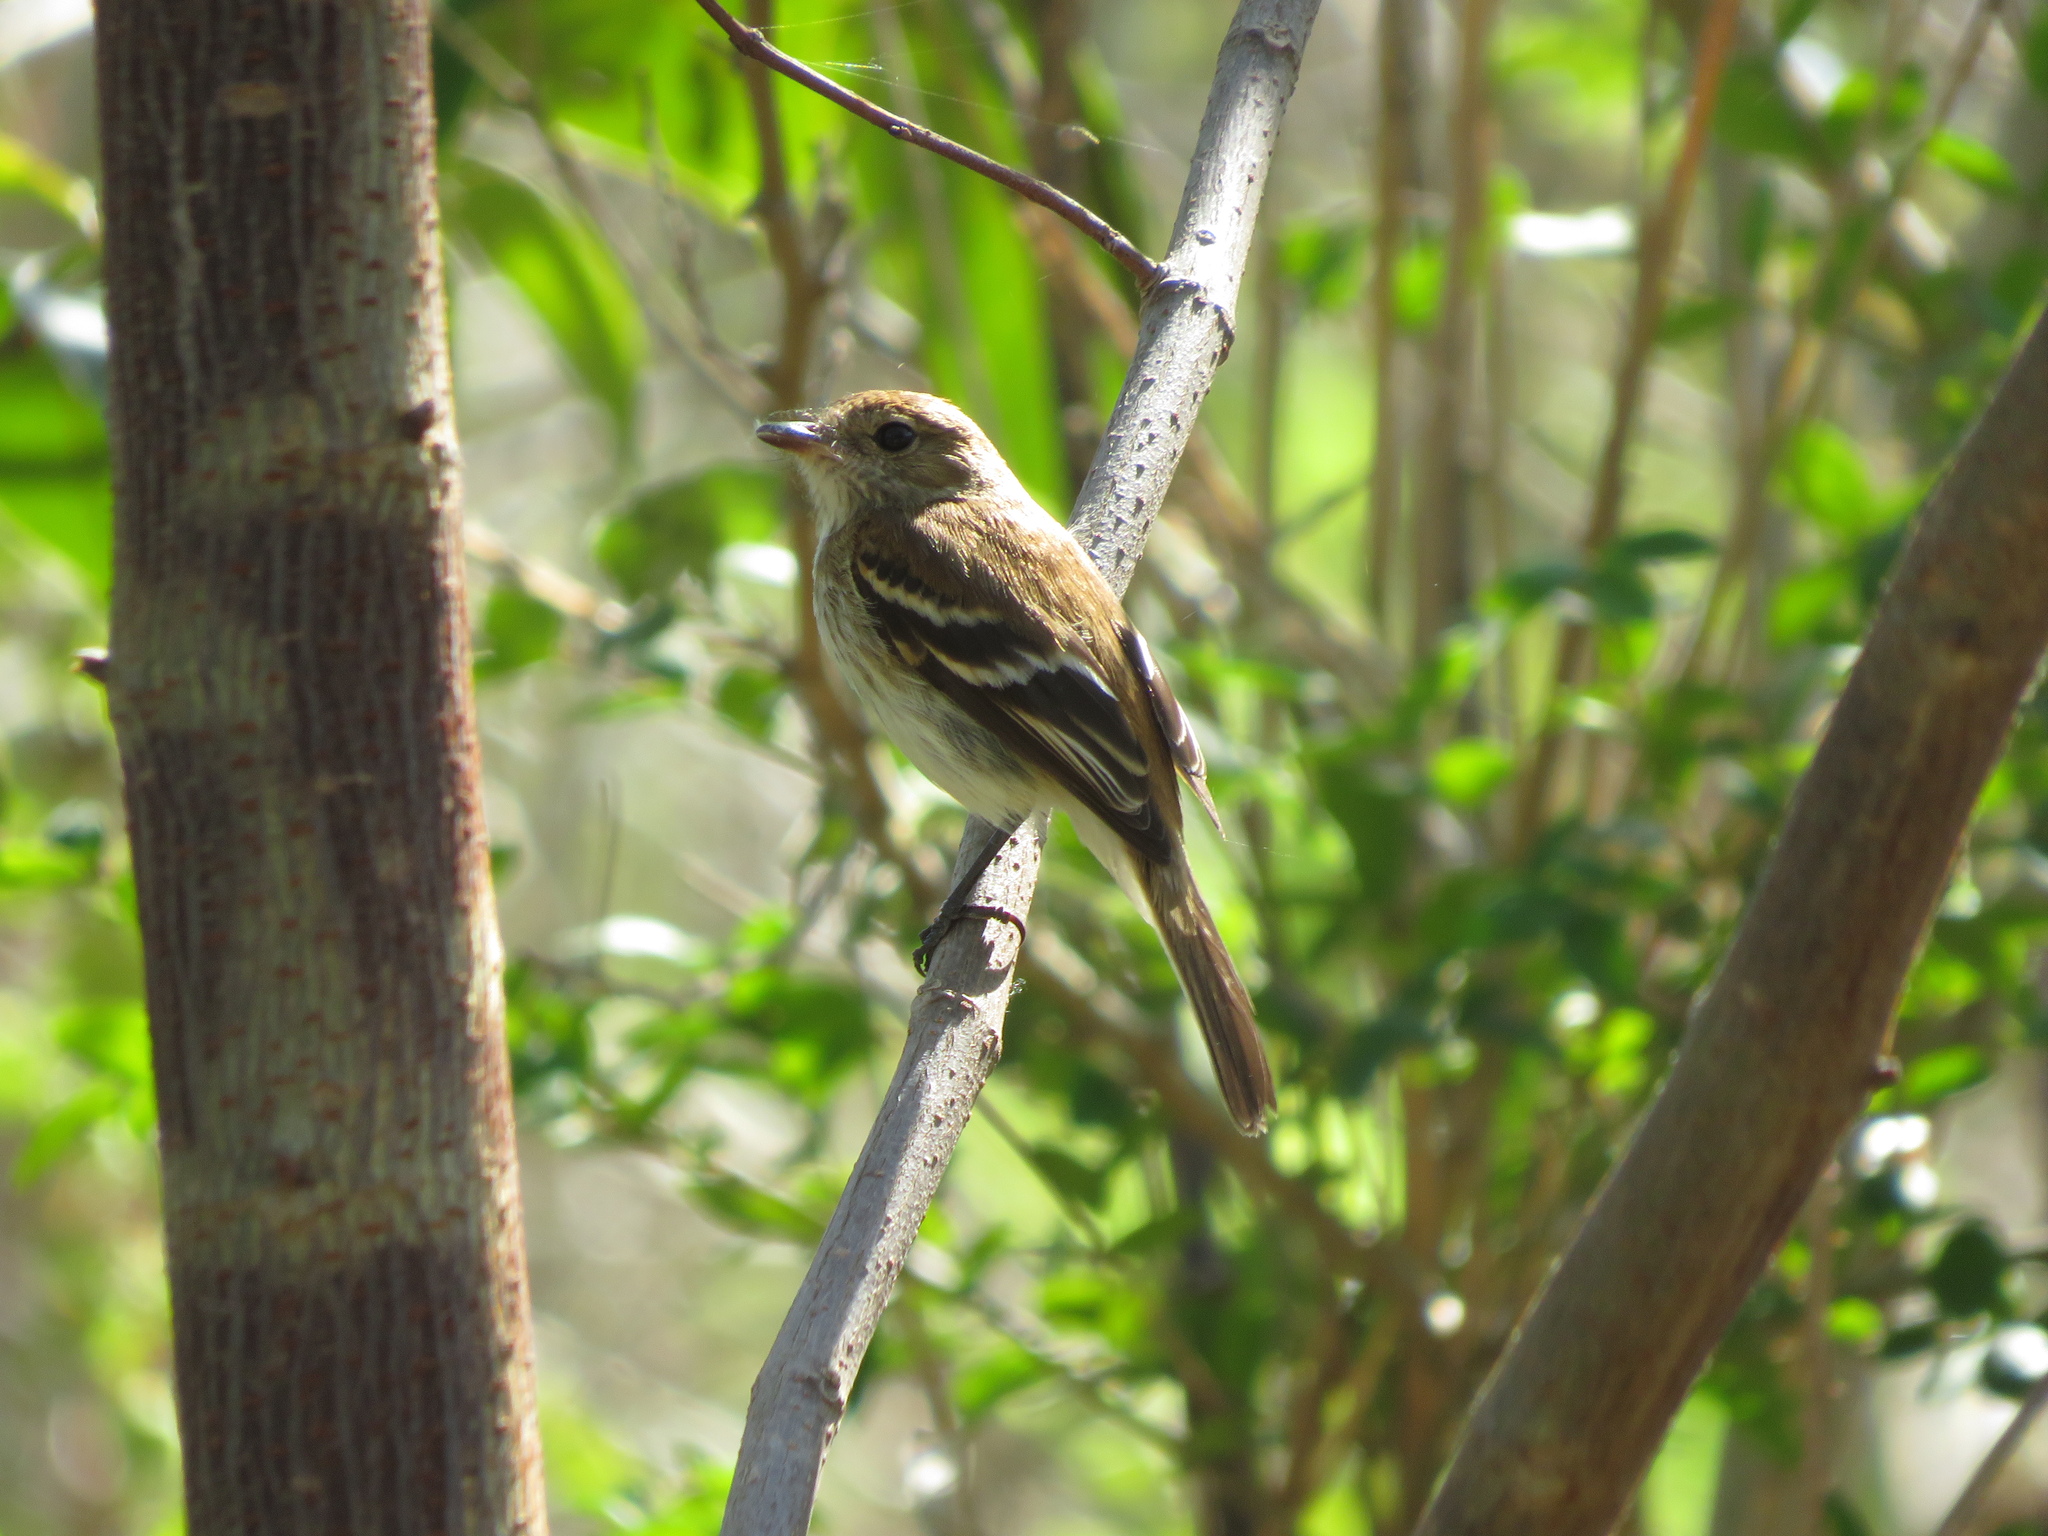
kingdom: Animalia
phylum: Chordata
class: Aves
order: Passeriformes
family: Tyrannidae
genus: Myiophobus
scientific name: Myiophobus fasciatus
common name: Bran-colored flycatcher
